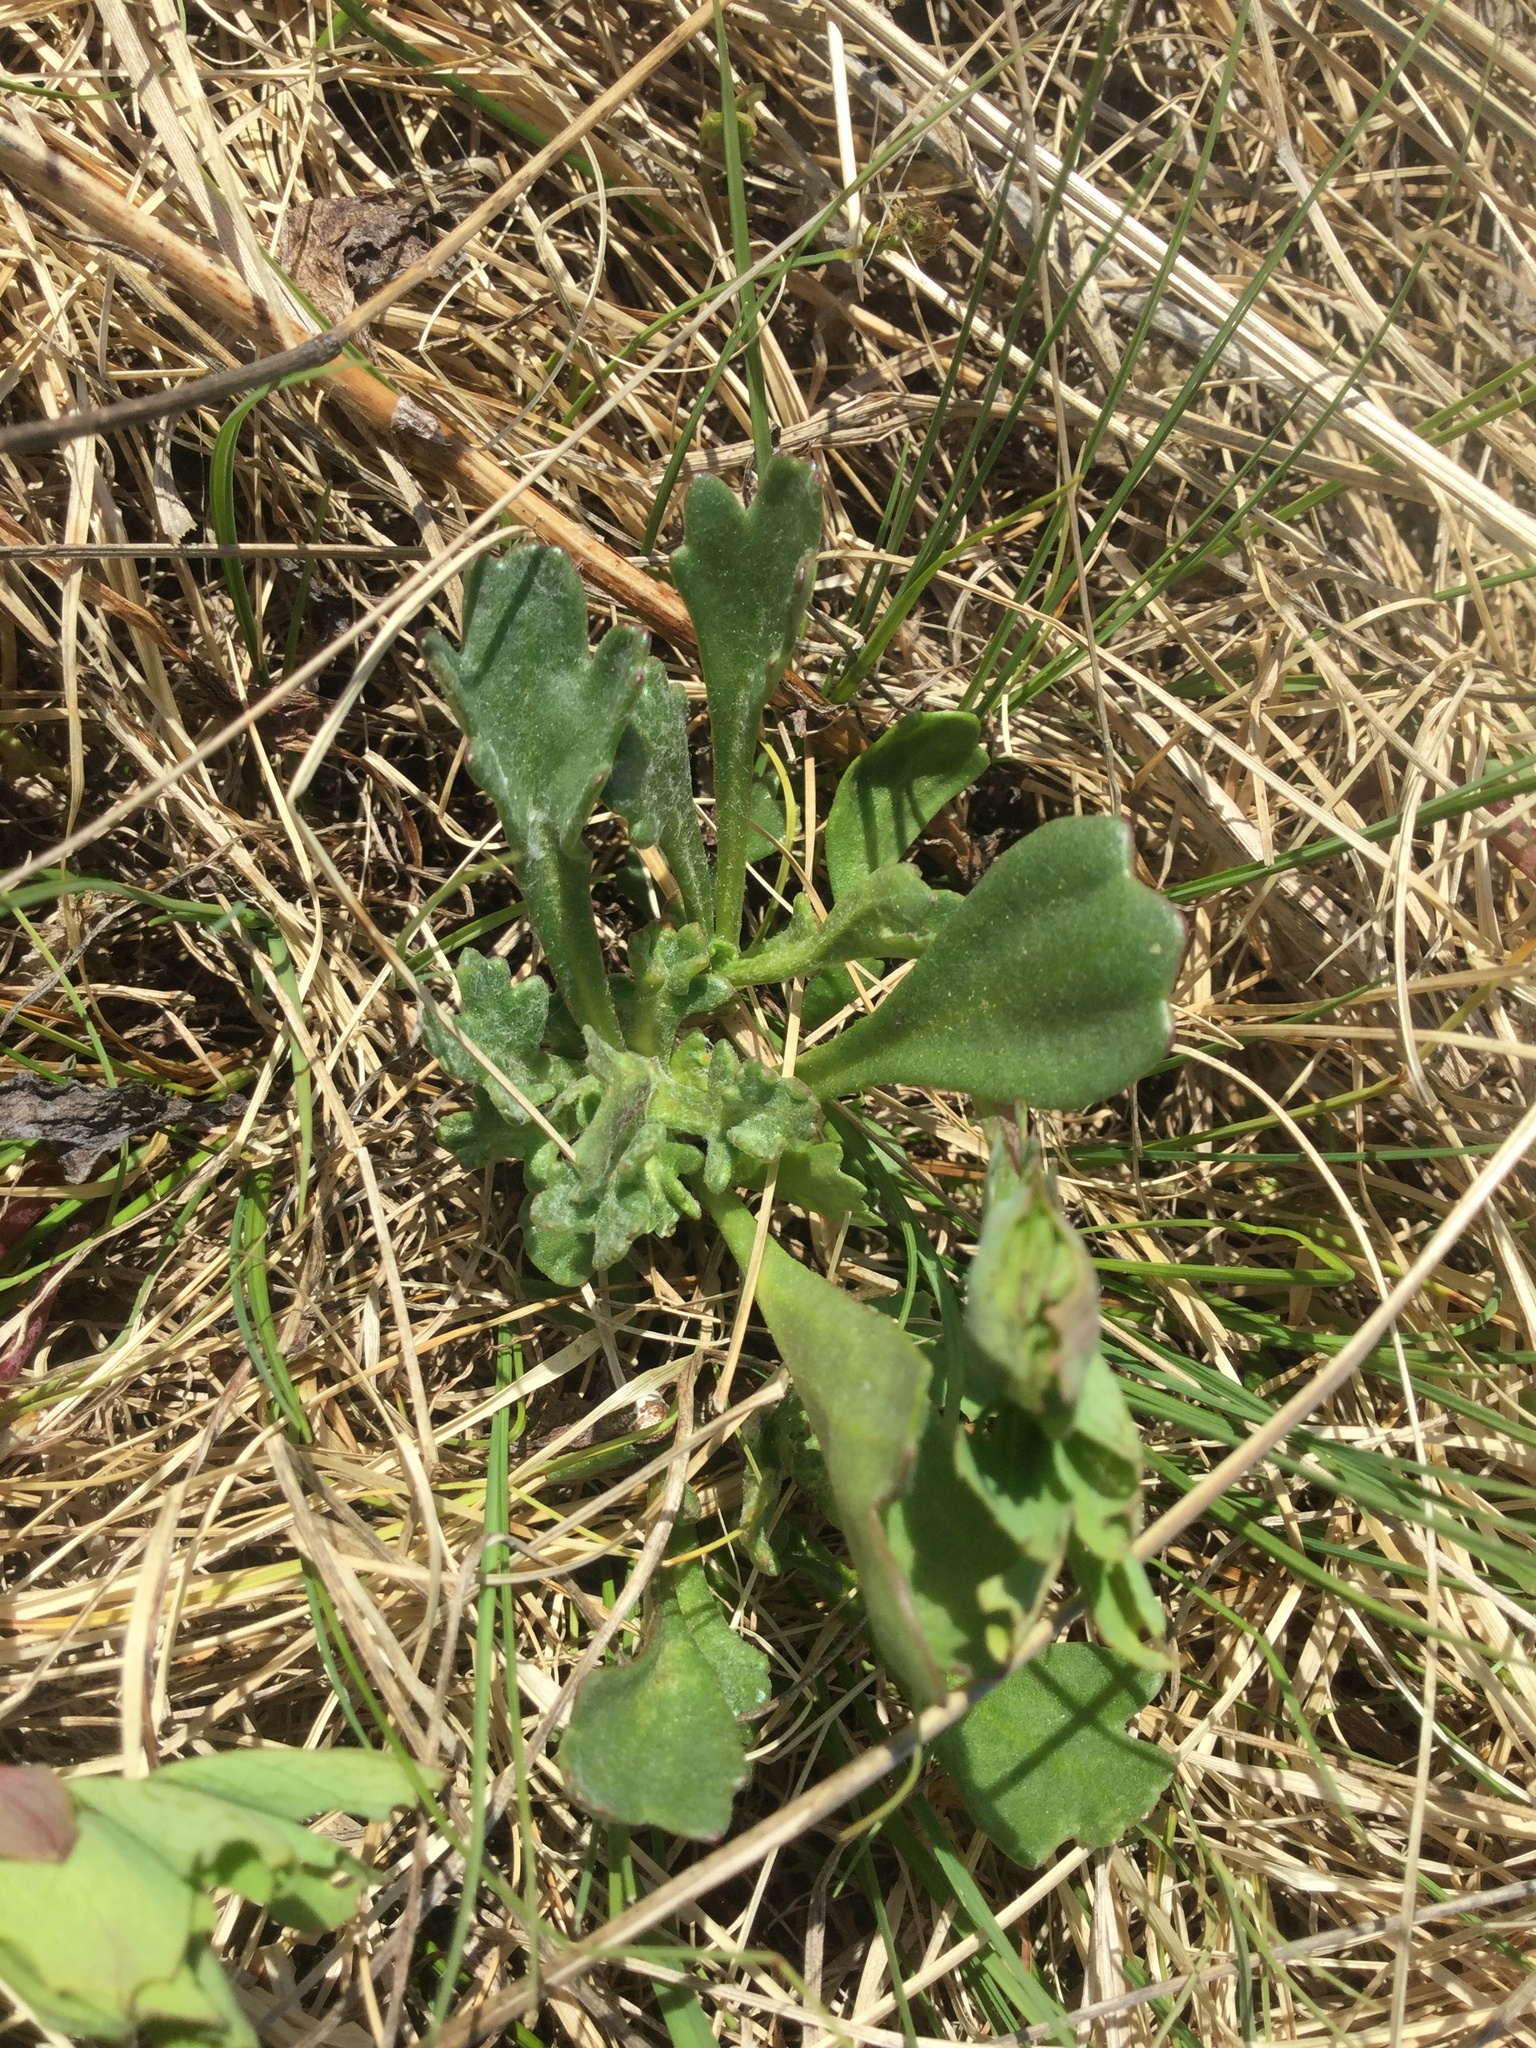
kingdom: Plantae
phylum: Tracheophyta
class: Magnoliopsida
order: Asterales
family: Asteraceae
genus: Arctanthemum
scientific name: Arctanthemum arcticum
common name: Arctic daisy
